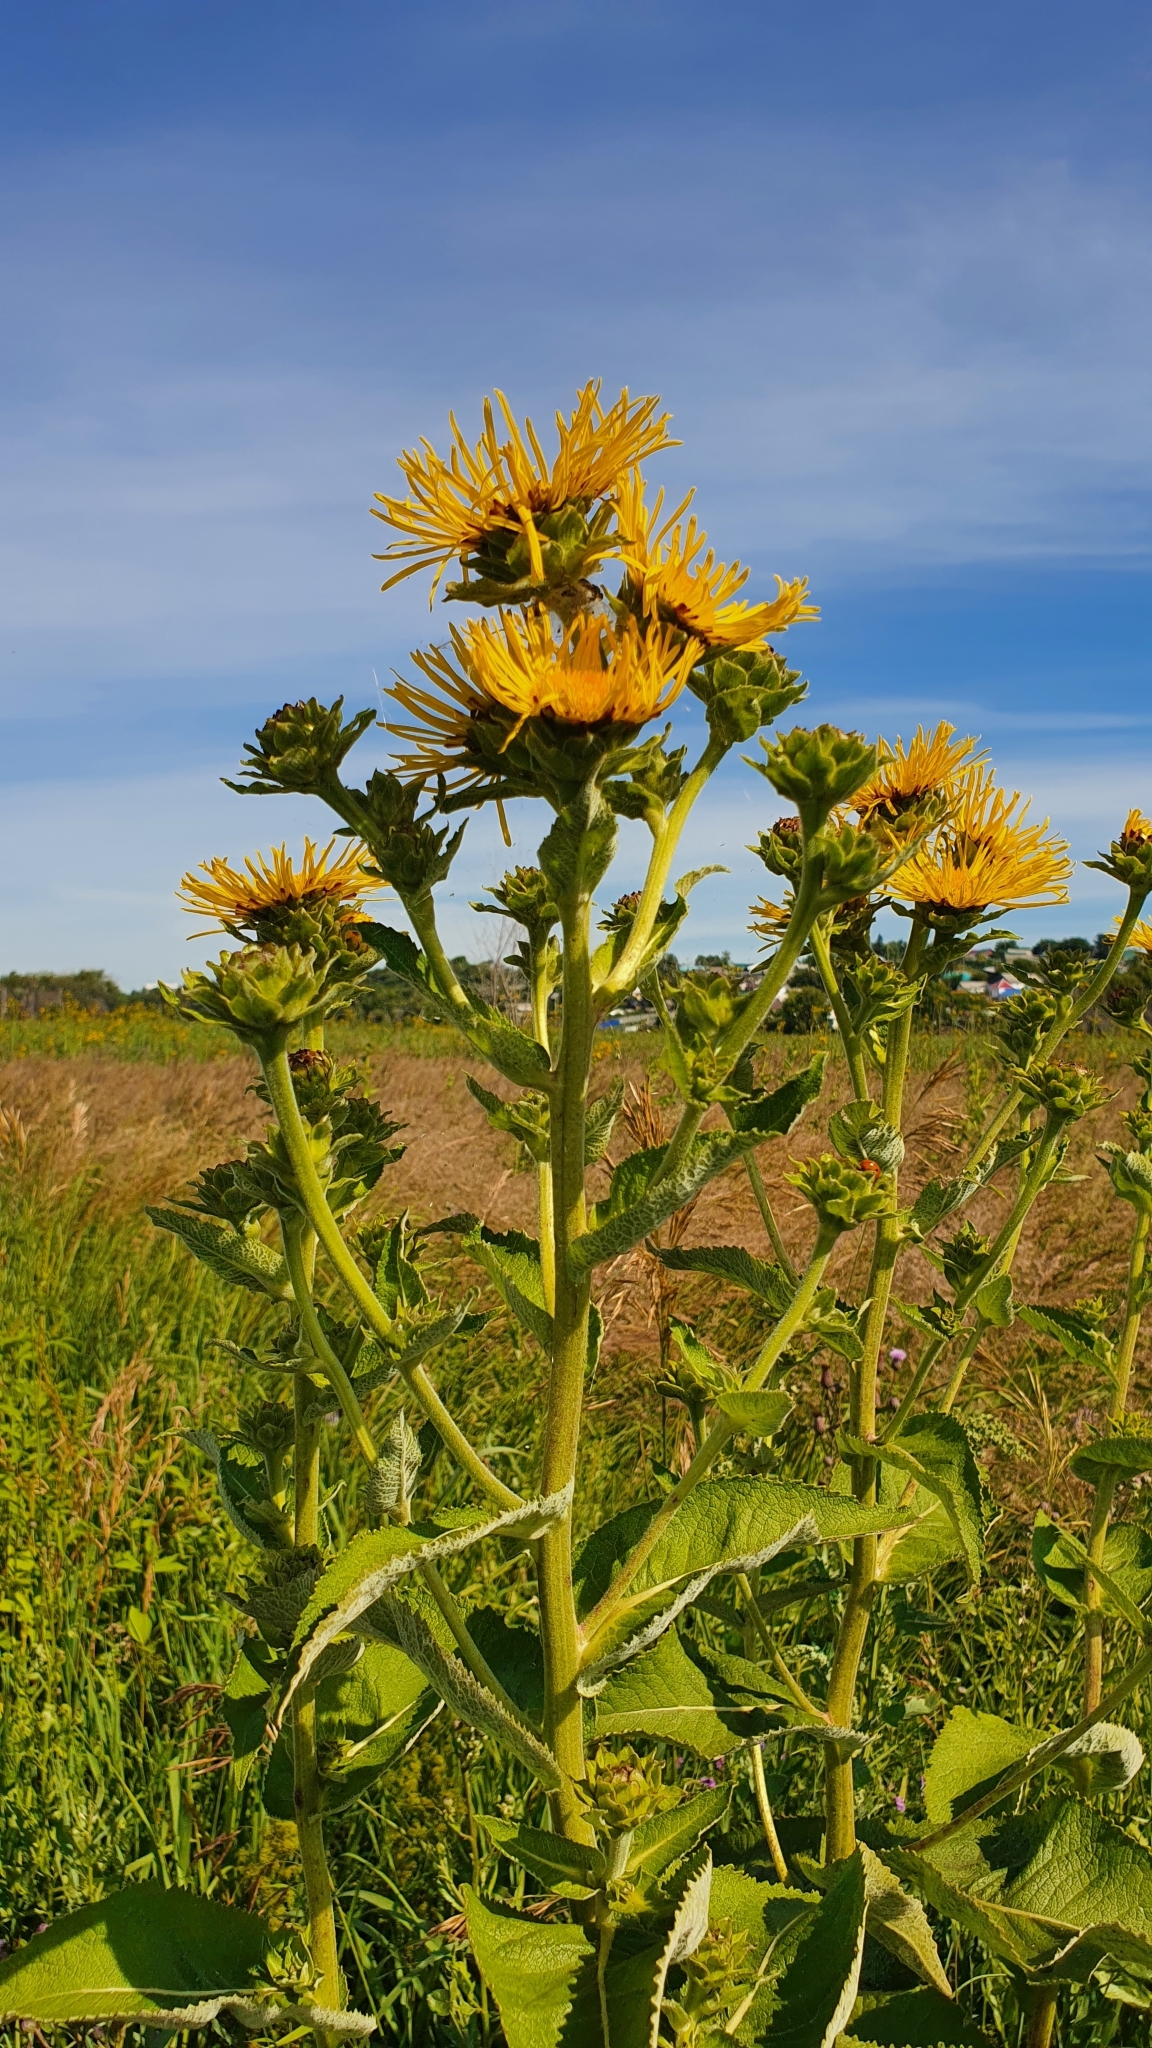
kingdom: Plantae
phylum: Tracheophyta
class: Magnoliopsida
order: Asterales
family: Asteraceae
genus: Inula
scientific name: Inula helenium
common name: Elecampane
